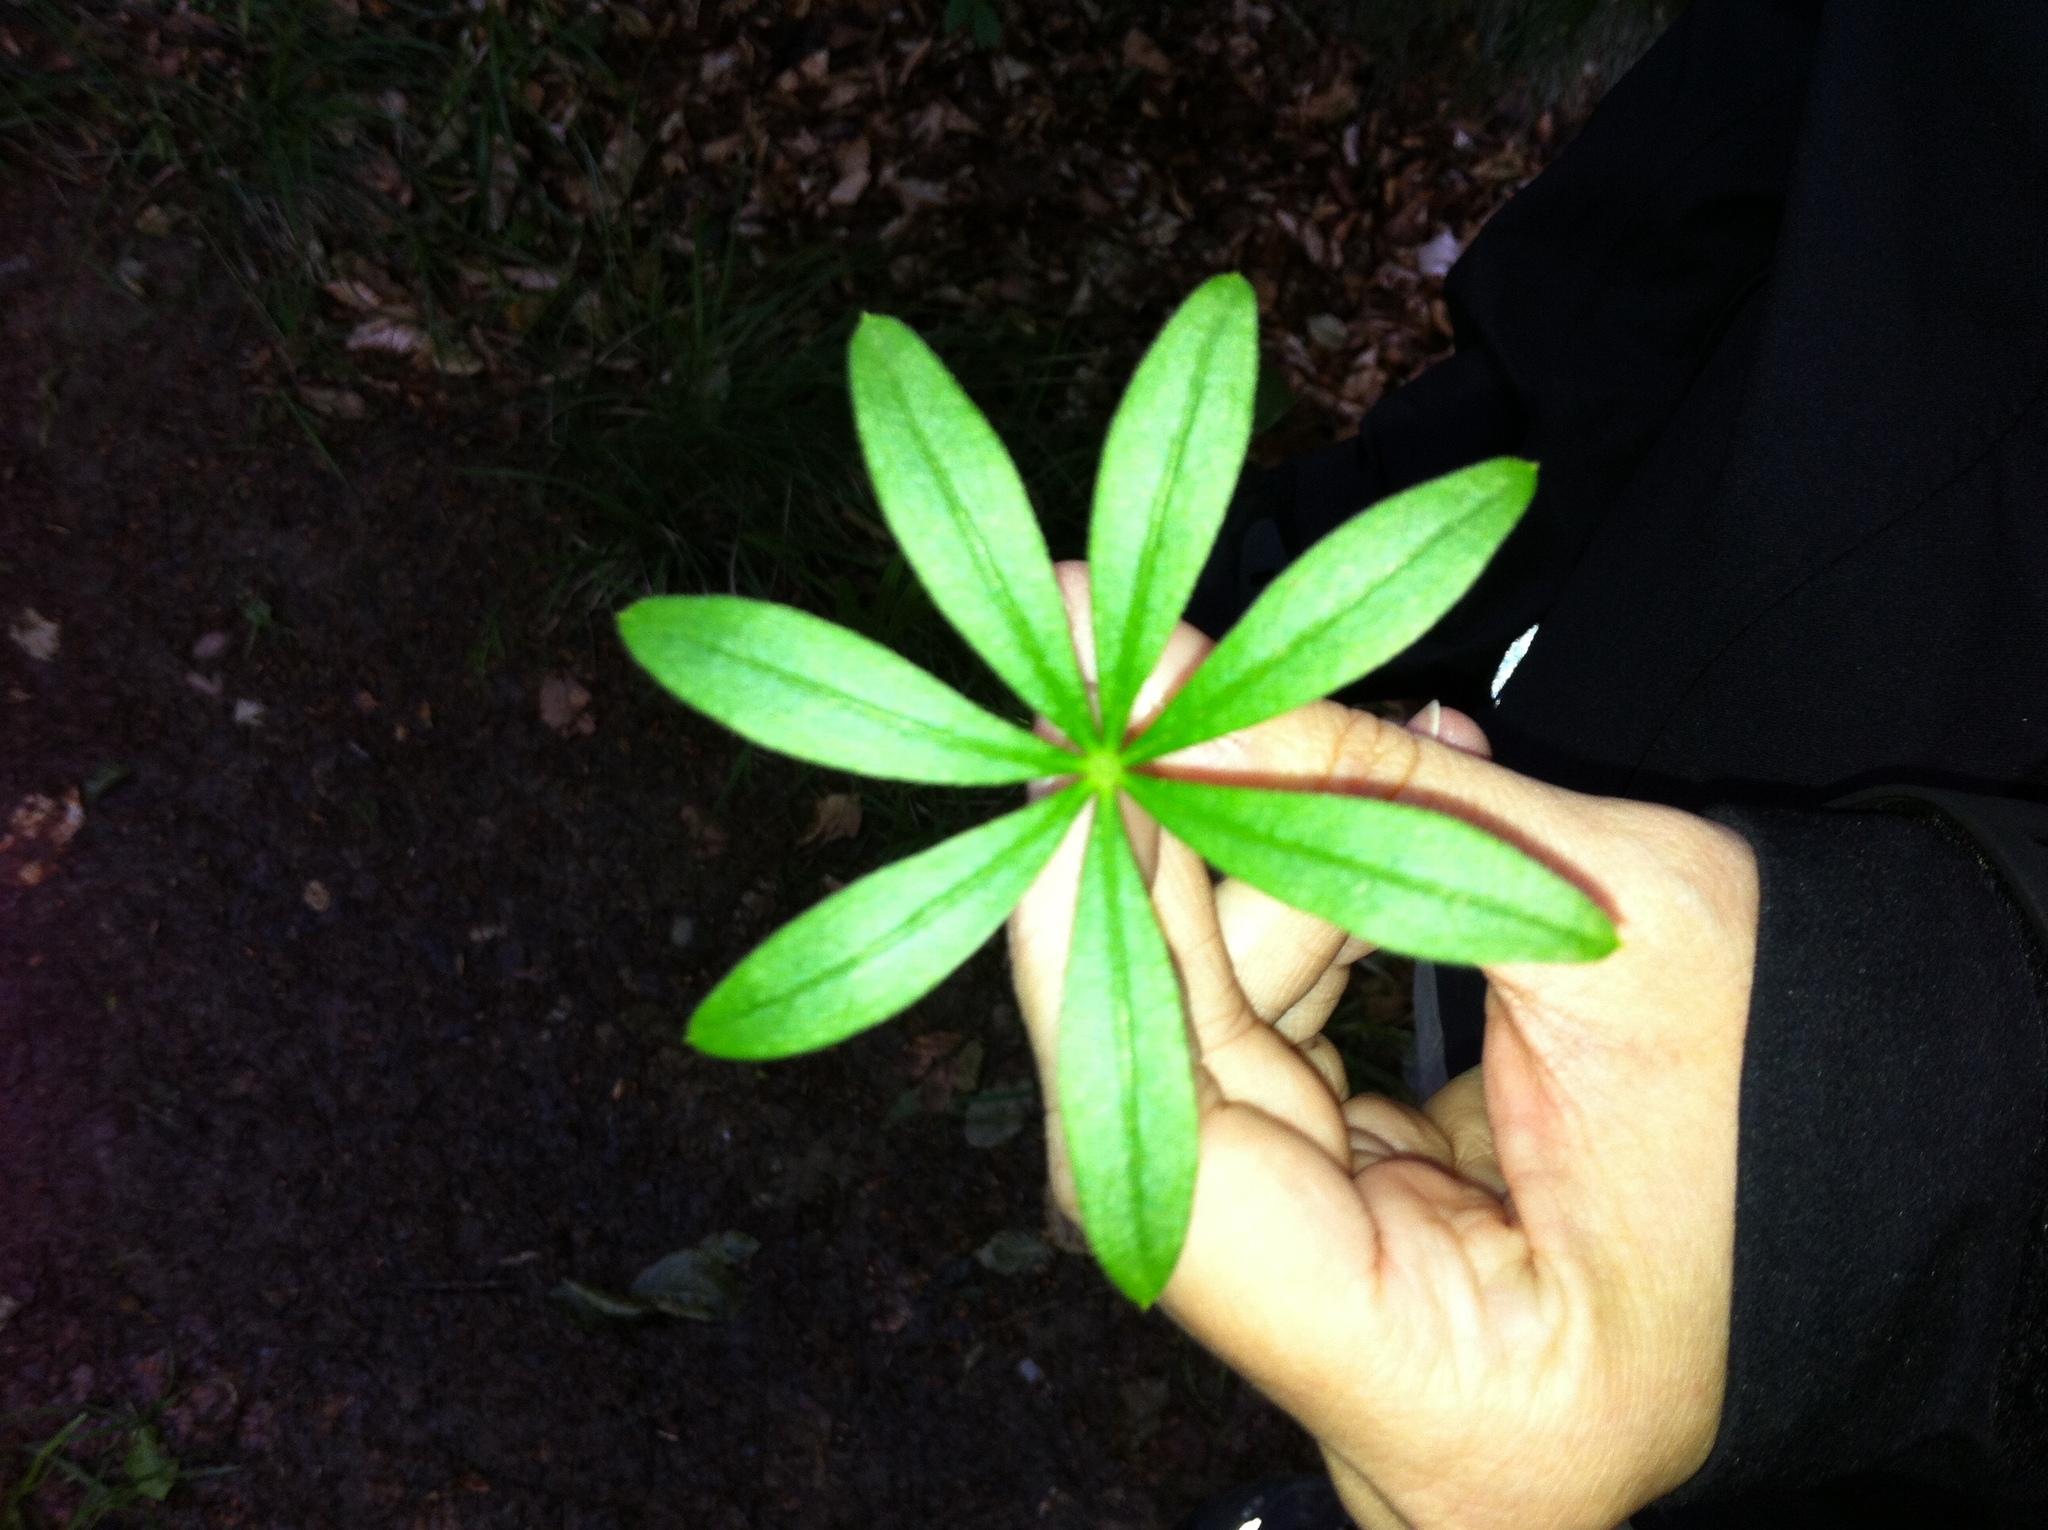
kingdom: Plantae
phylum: Tracheophyta
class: Magnoliopsida
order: Gentianales
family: Rubiaceae
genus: Galium
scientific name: Galium odoratum
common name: Sweet woodruff
